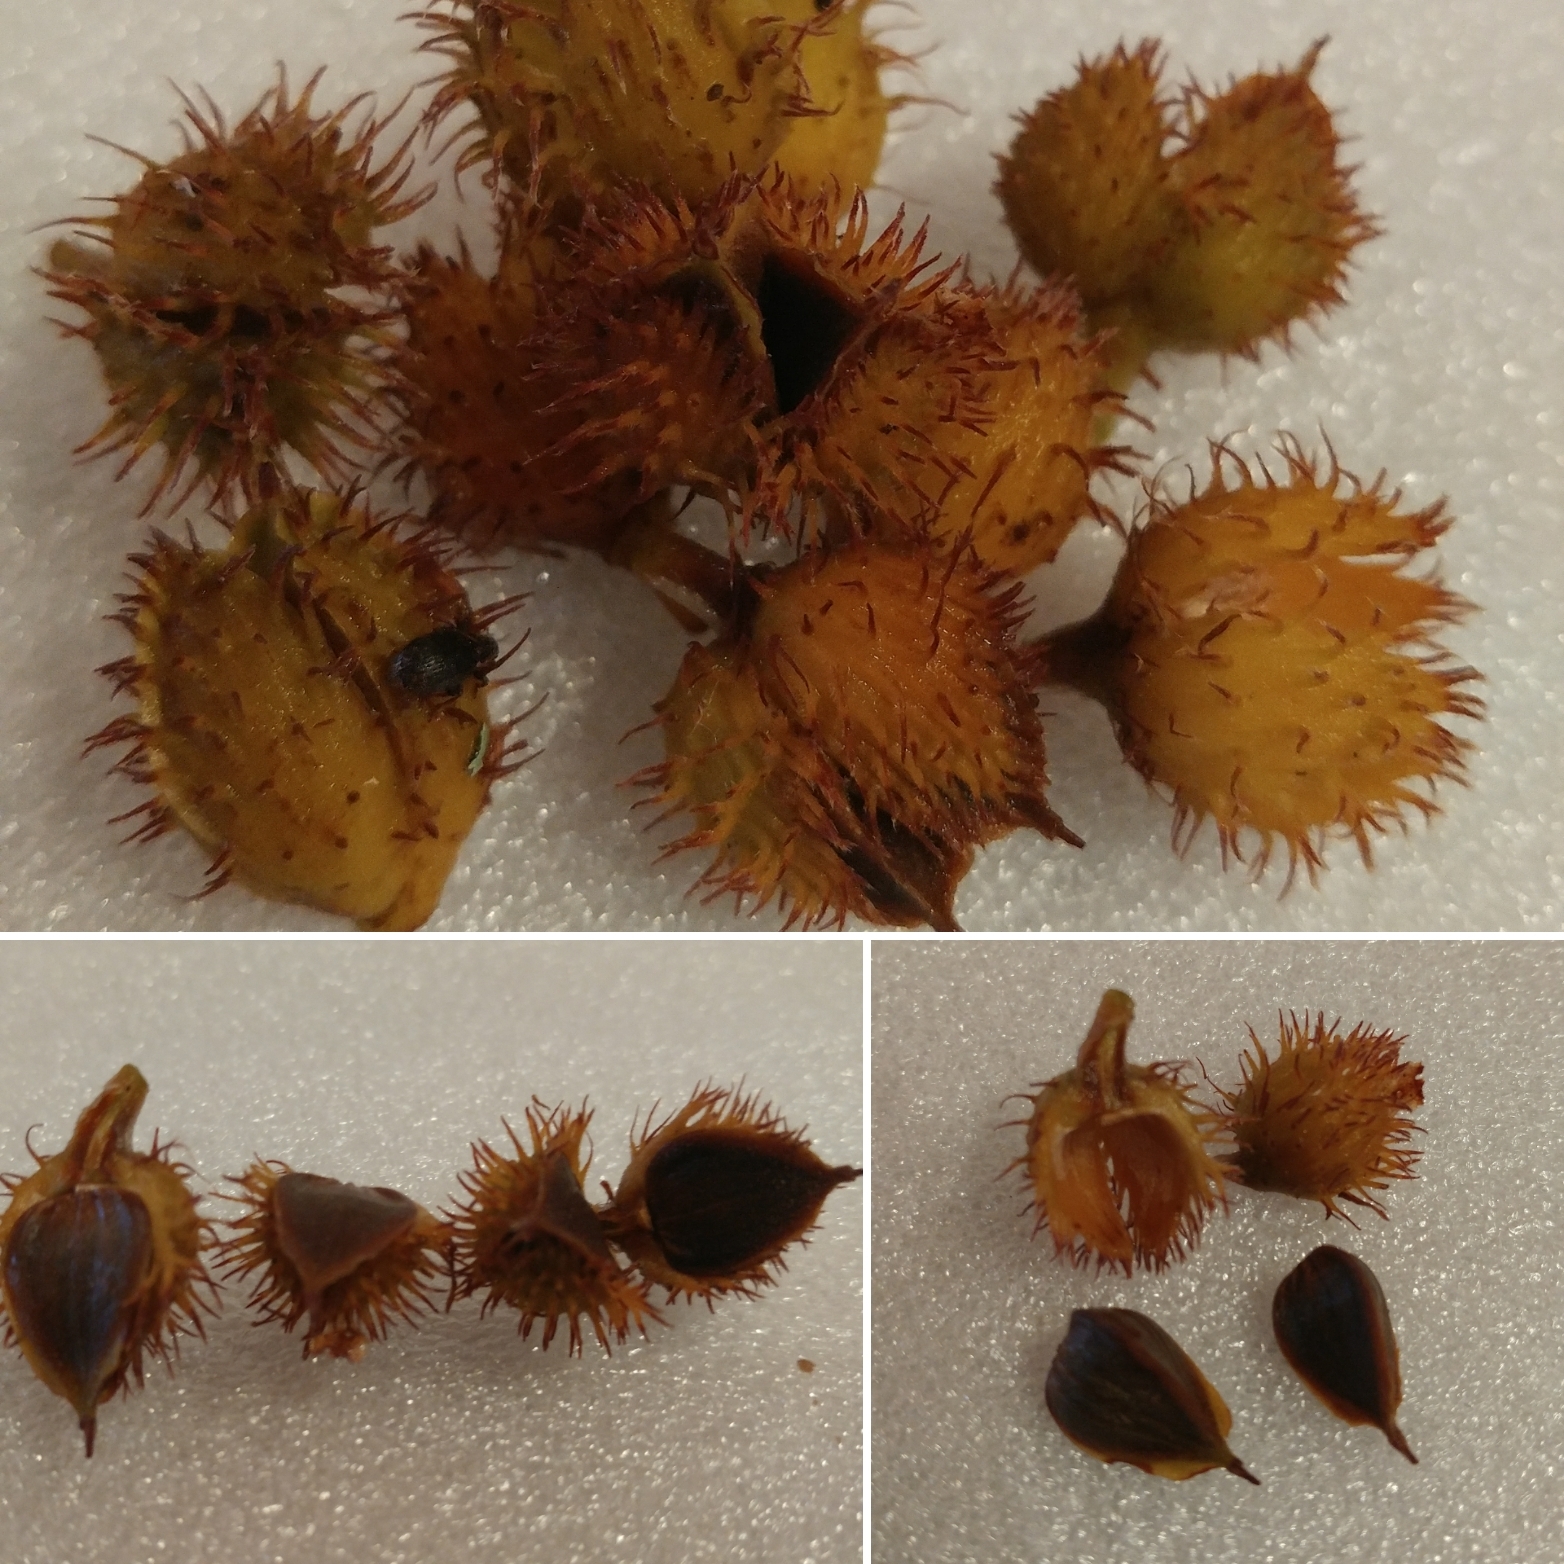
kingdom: Plantae
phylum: Tracheophyta
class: Magnoliopsida
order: Fagales
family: Fagaceae
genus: Fagus
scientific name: Fagus grandifolia
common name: American beech
